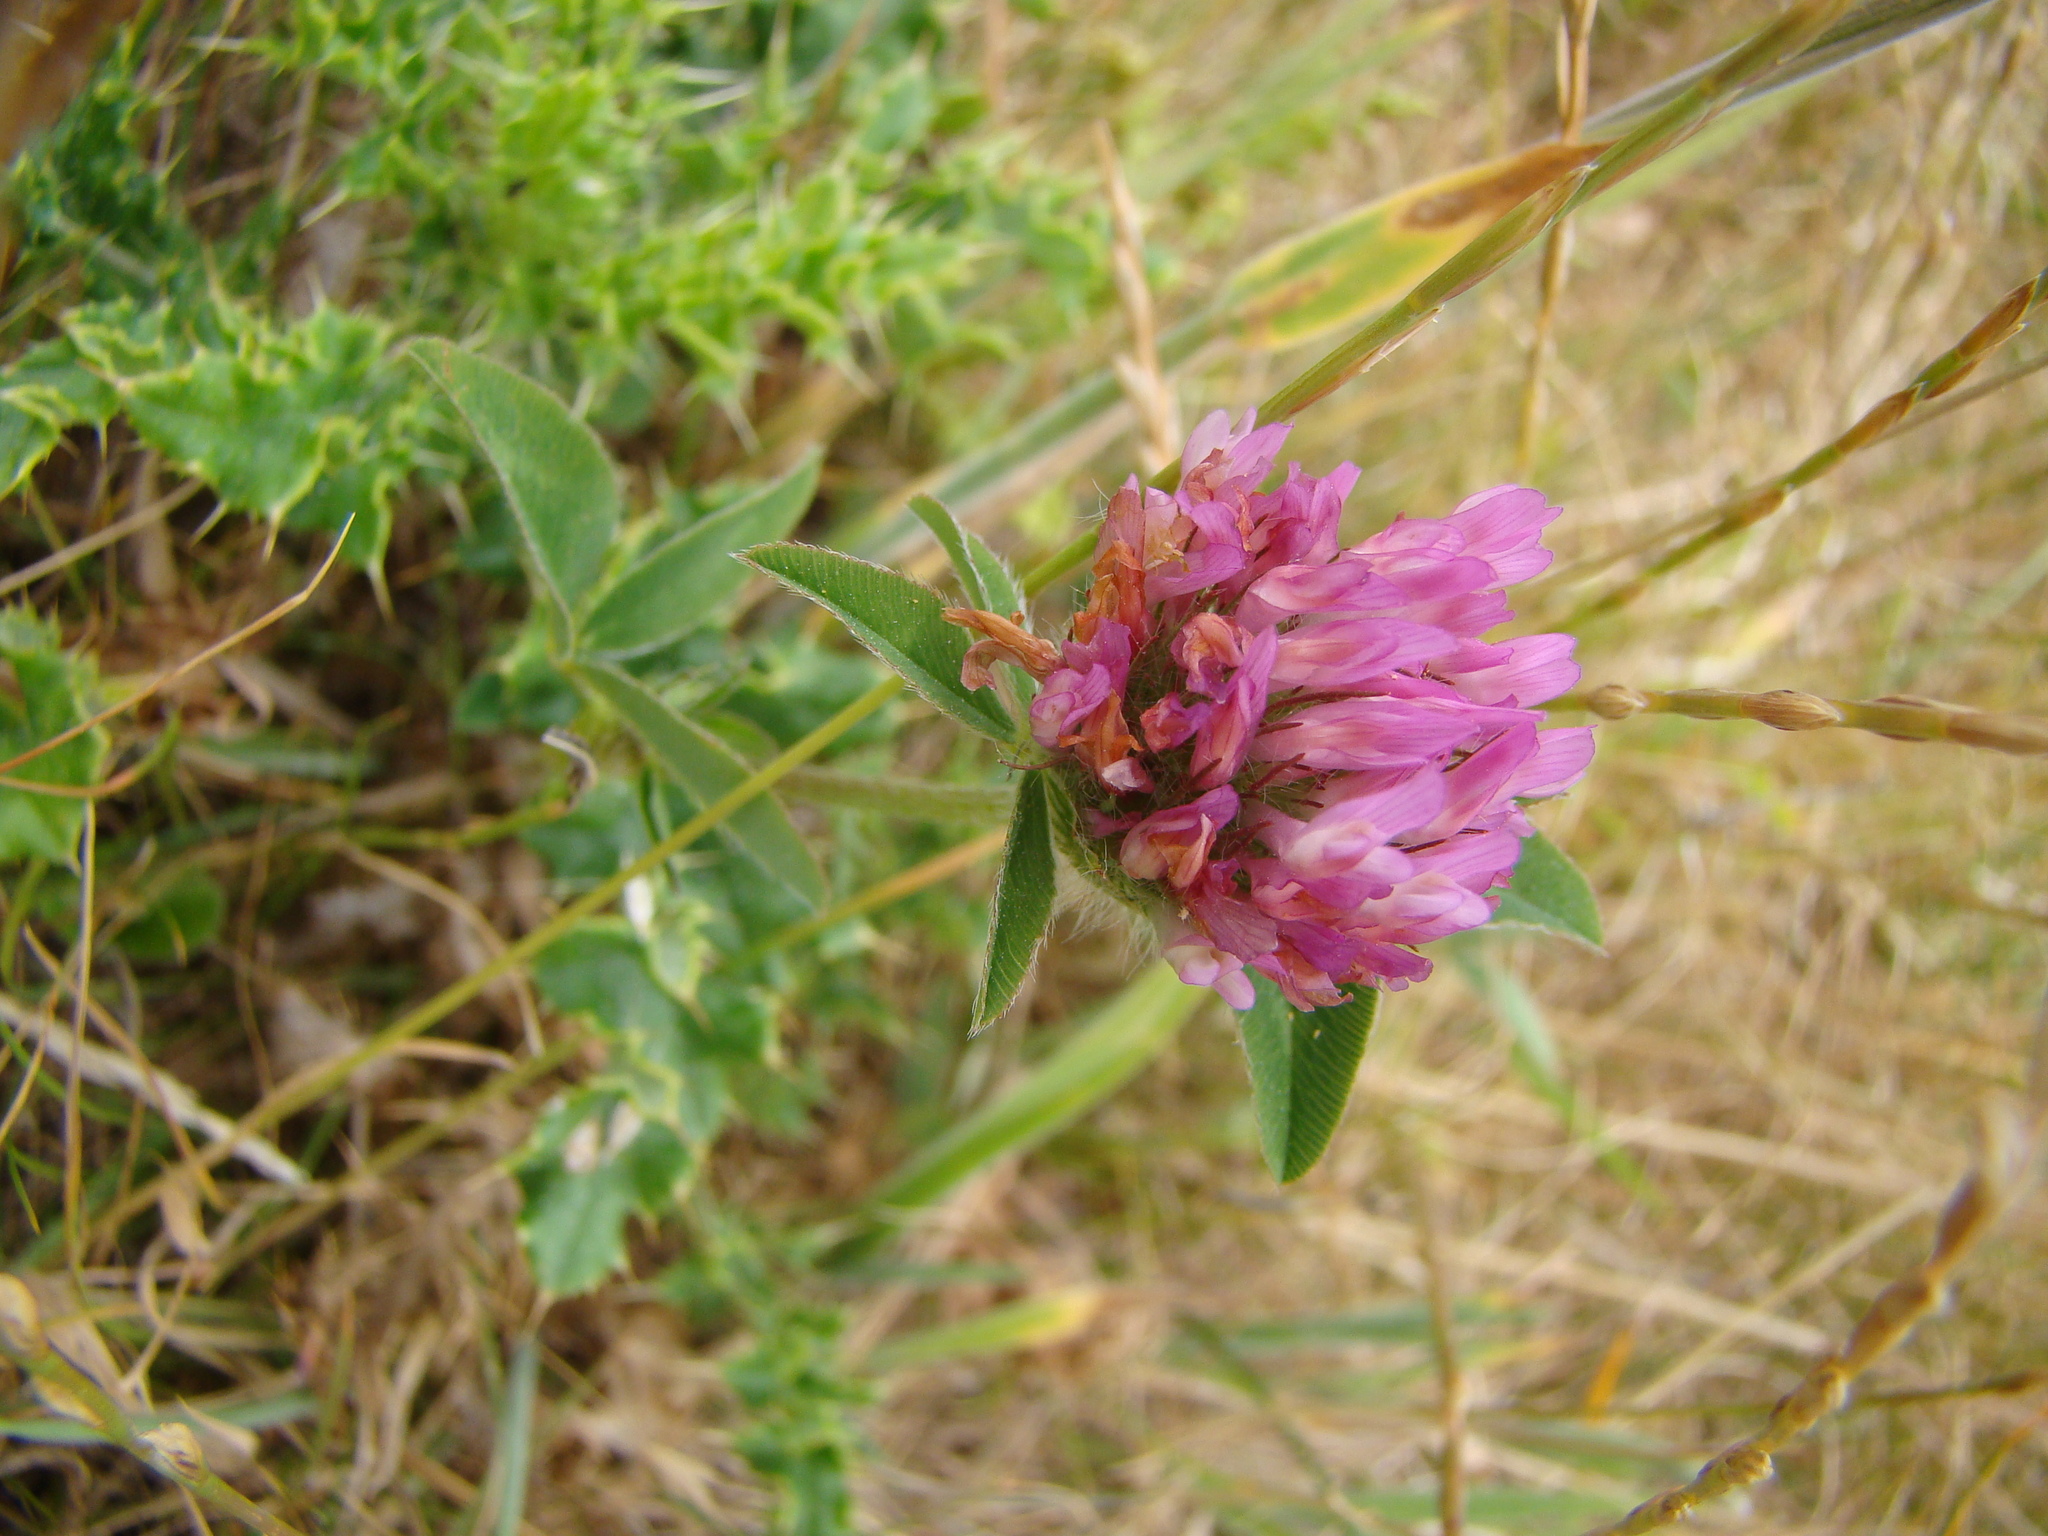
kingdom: Plantae
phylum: Tracheophyta
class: Magnoliopsida
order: Fabales
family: Fabaceae
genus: Trifolium
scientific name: Trifolium pratense
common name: Red clover
